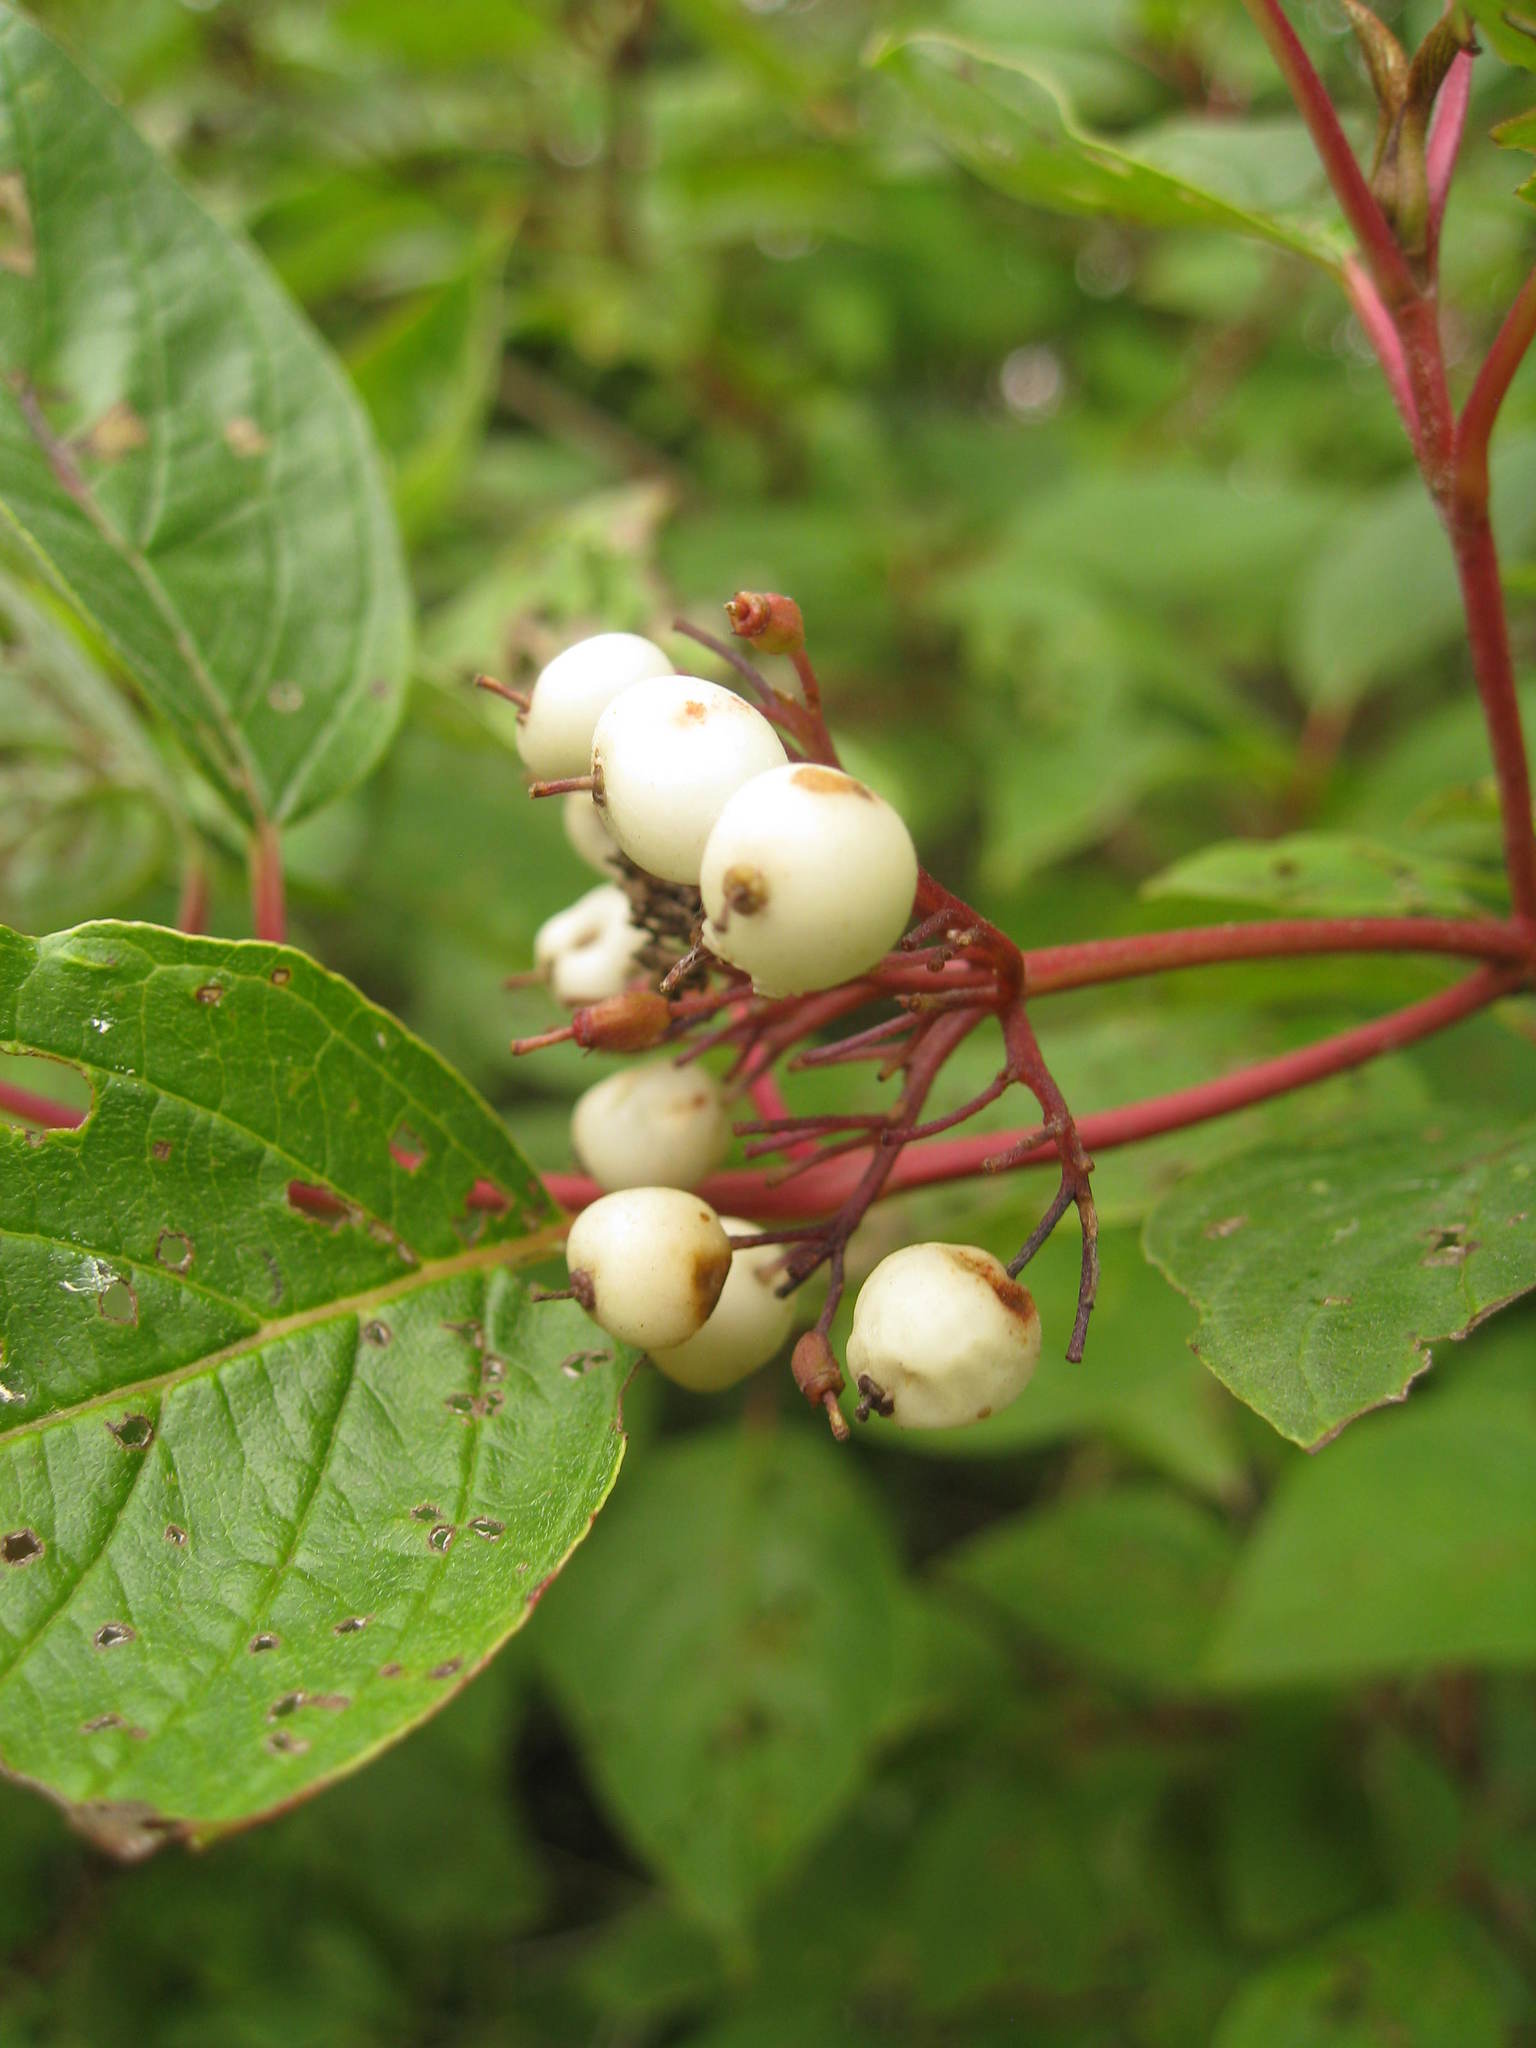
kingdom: Plantae
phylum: Tracheophyta
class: Magnoliopsida
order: Cornales
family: Cornaceae
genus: Cornus
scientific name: Cornus sericea
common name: Red-osier dogwood
